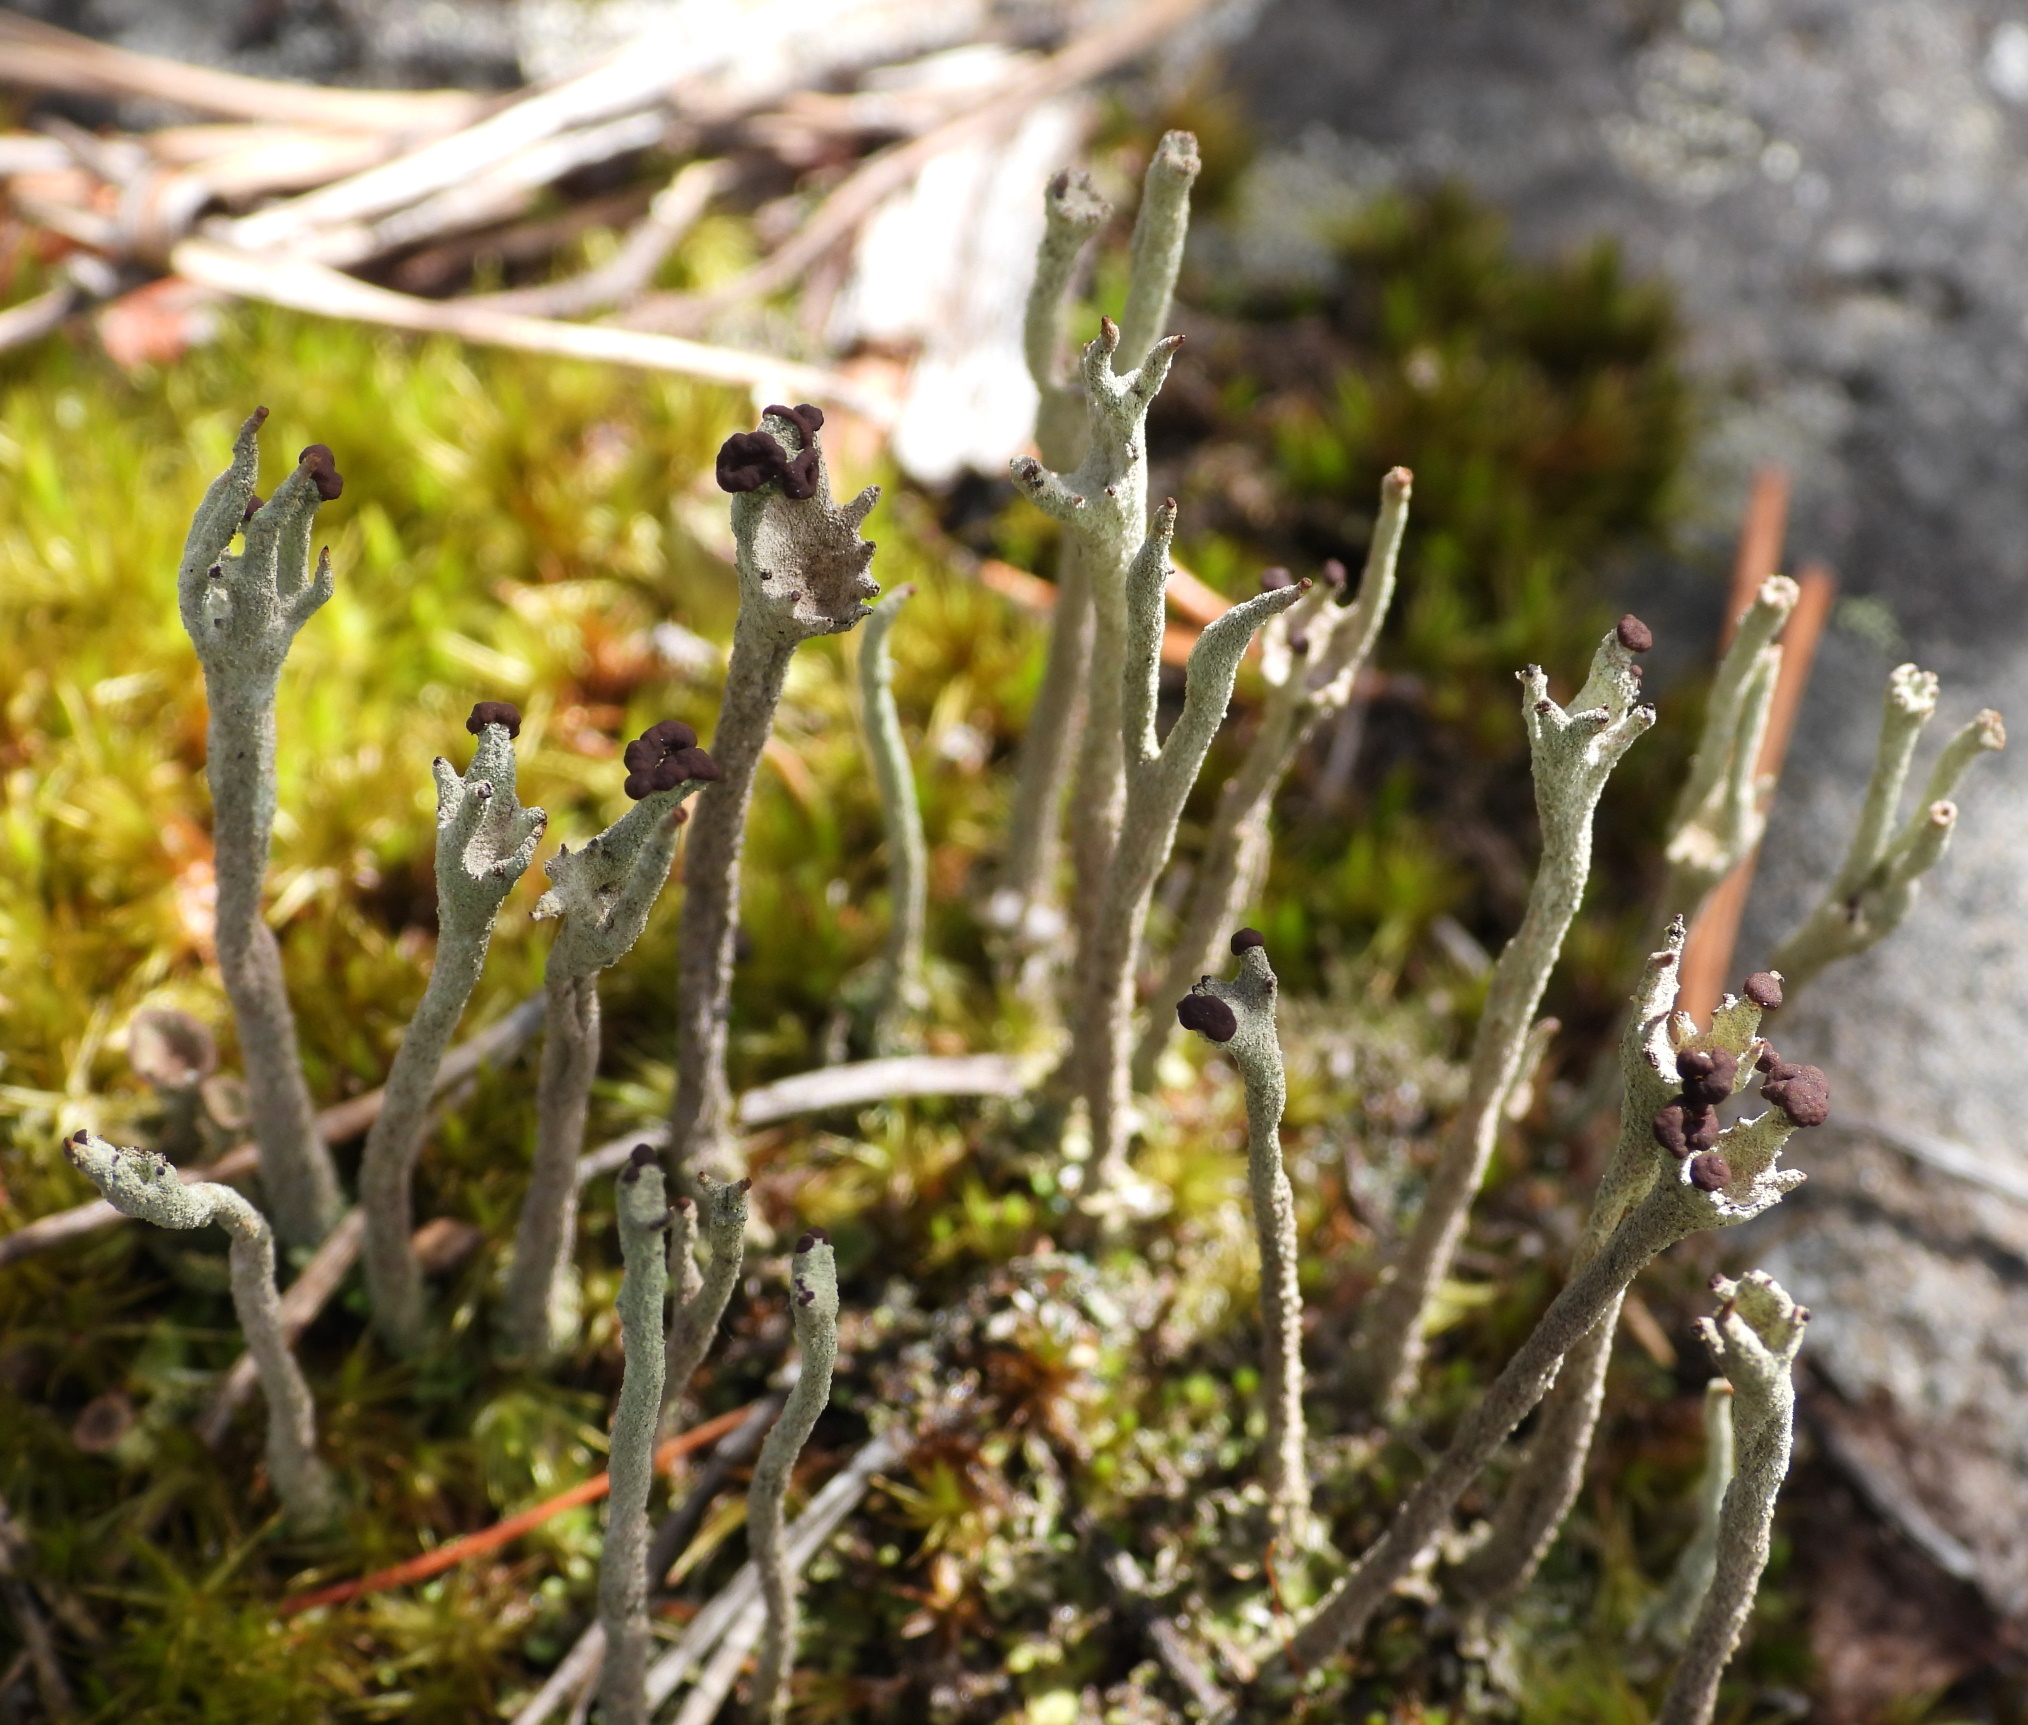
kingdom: Fungi
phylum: Ascomycota
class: Lecanoromycetes
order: Lecanorales
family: Cladoniaceae
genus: Cladonia
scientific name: Cladonia subulata
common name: Antlered powderhorn
